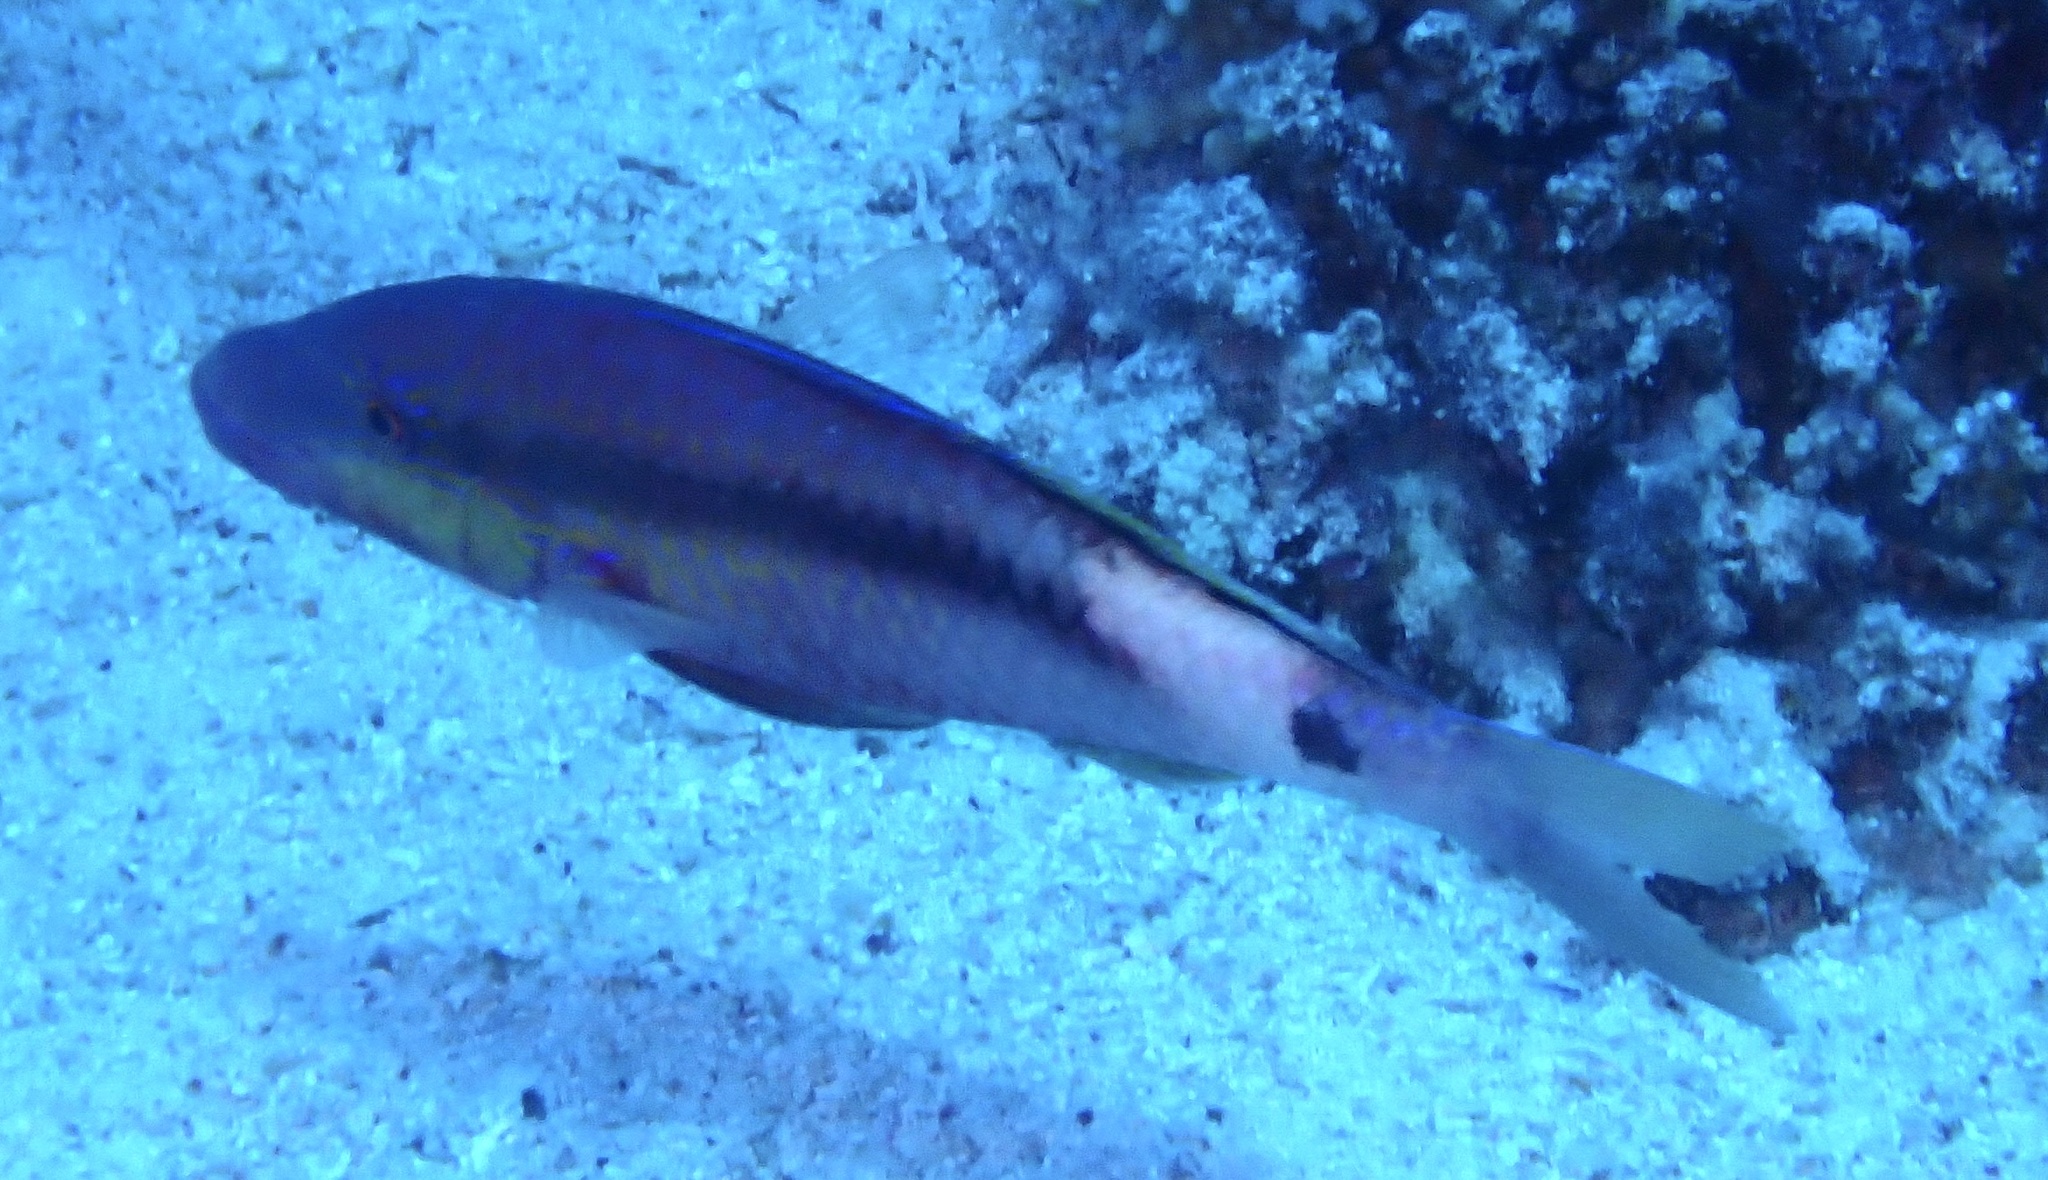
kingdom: Animalia
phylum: Chordata
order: Perciformes
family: Mullidae
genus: Parupeneus
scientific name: Parupeneus macronemus
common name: Long-barbel goatfish
